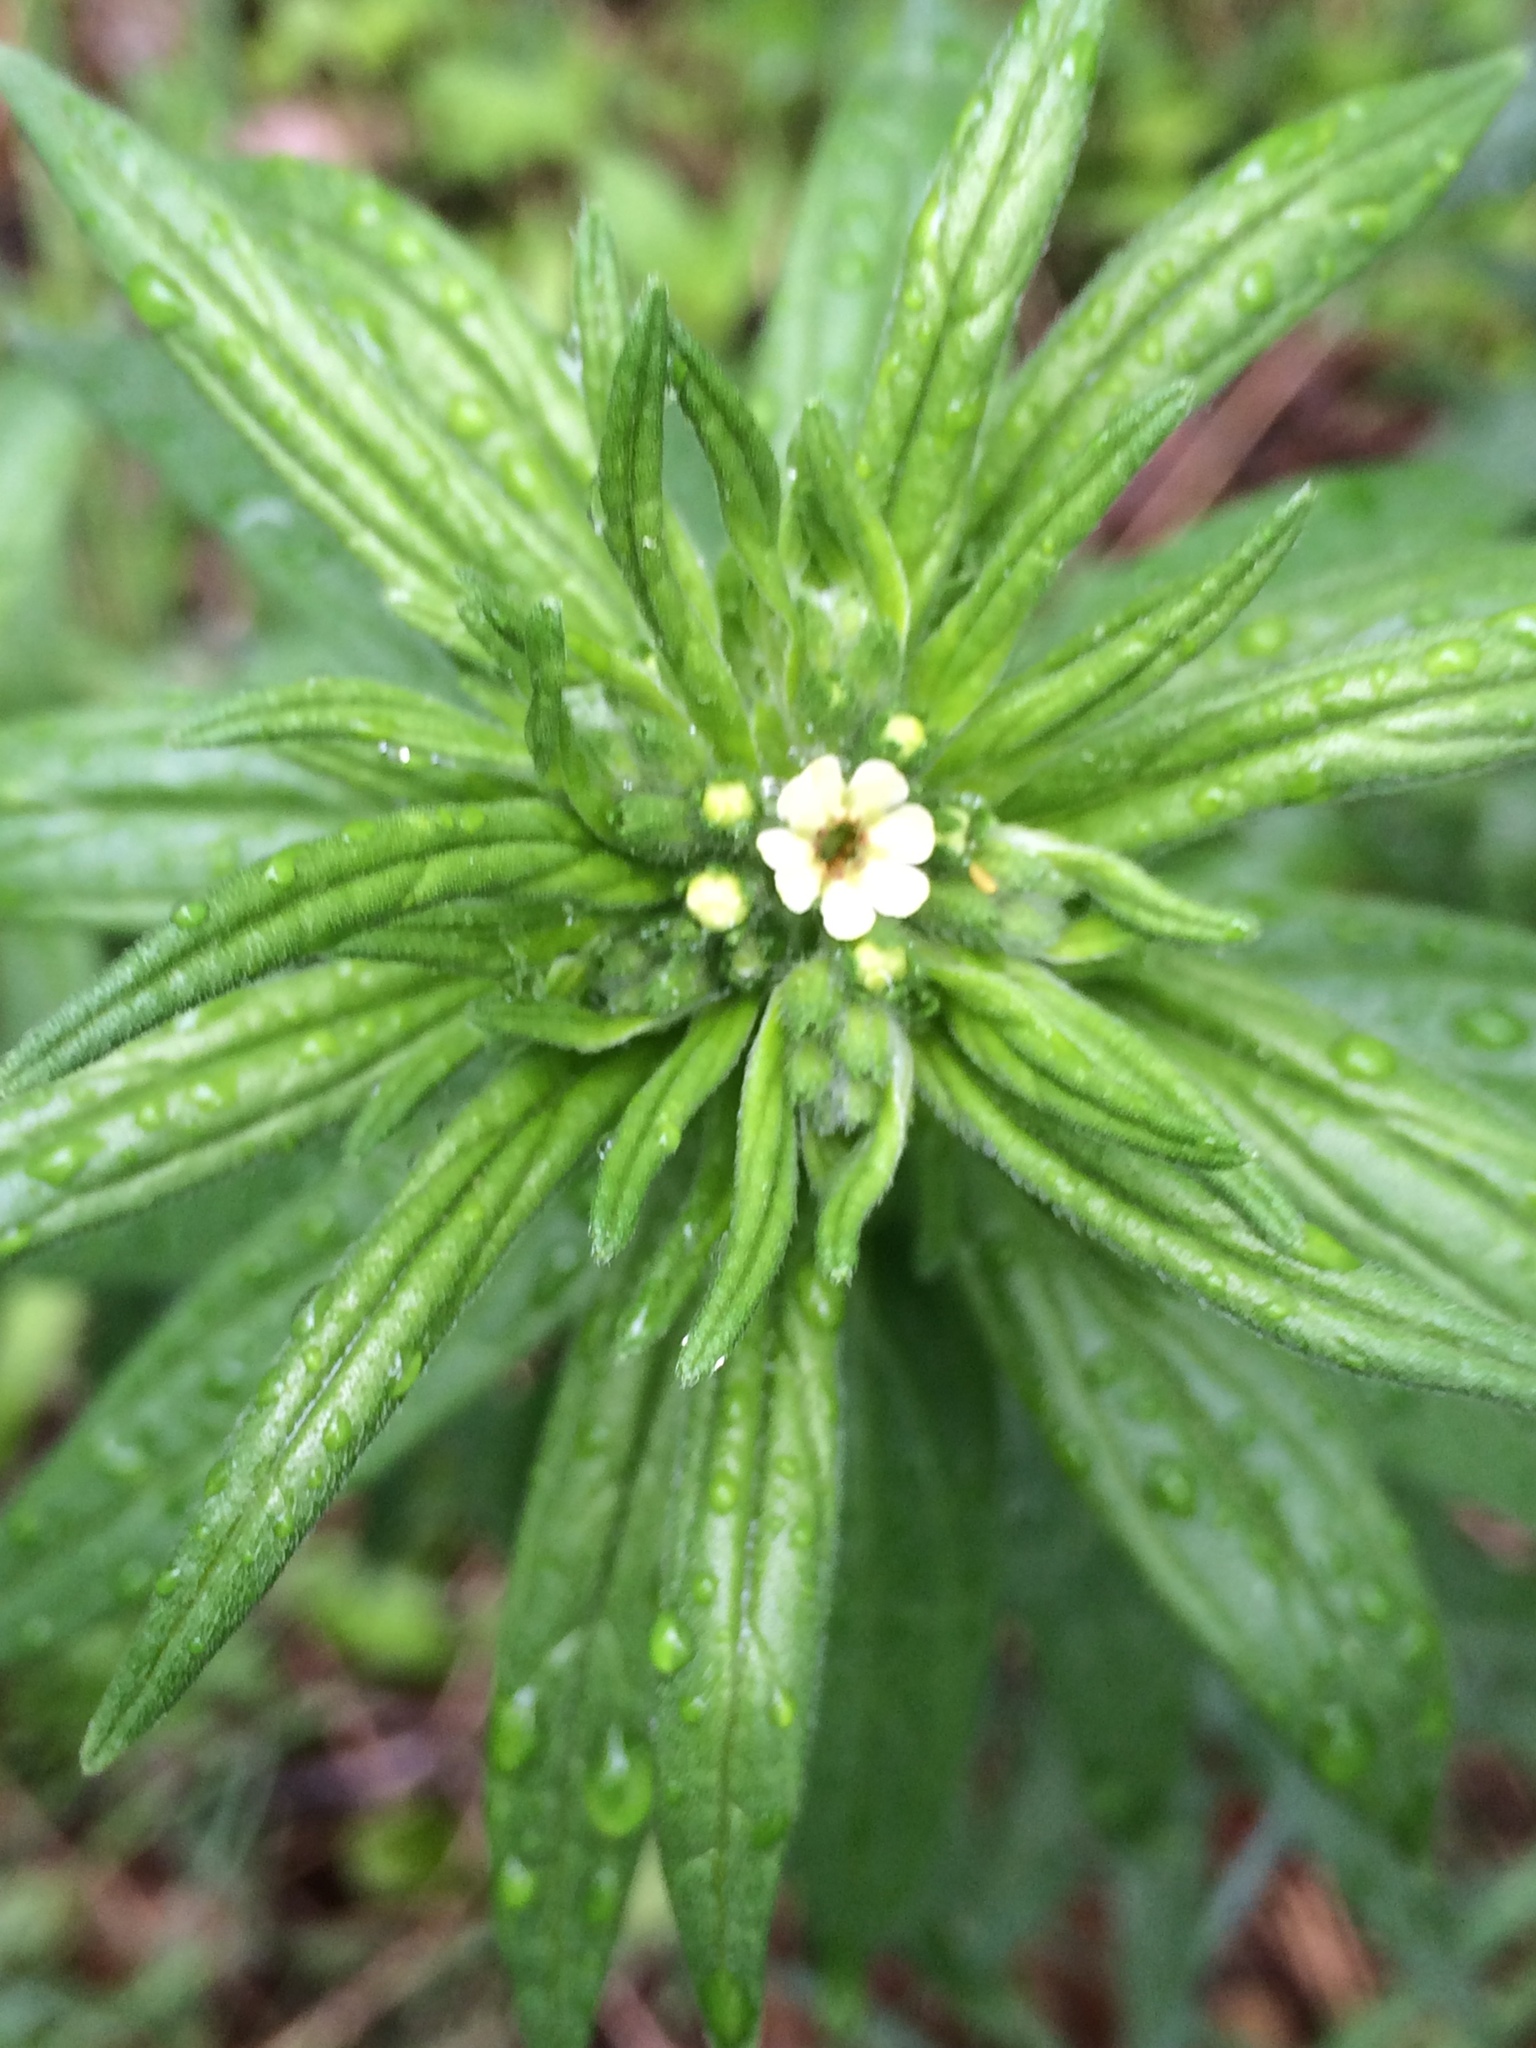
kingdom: Plantae
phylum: Tracheophyta
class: Magnoliopsida
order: Boraginales
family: Boraginaceae
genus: Lithospermum
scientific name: Lithospermum officinale
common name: Common gromwell
